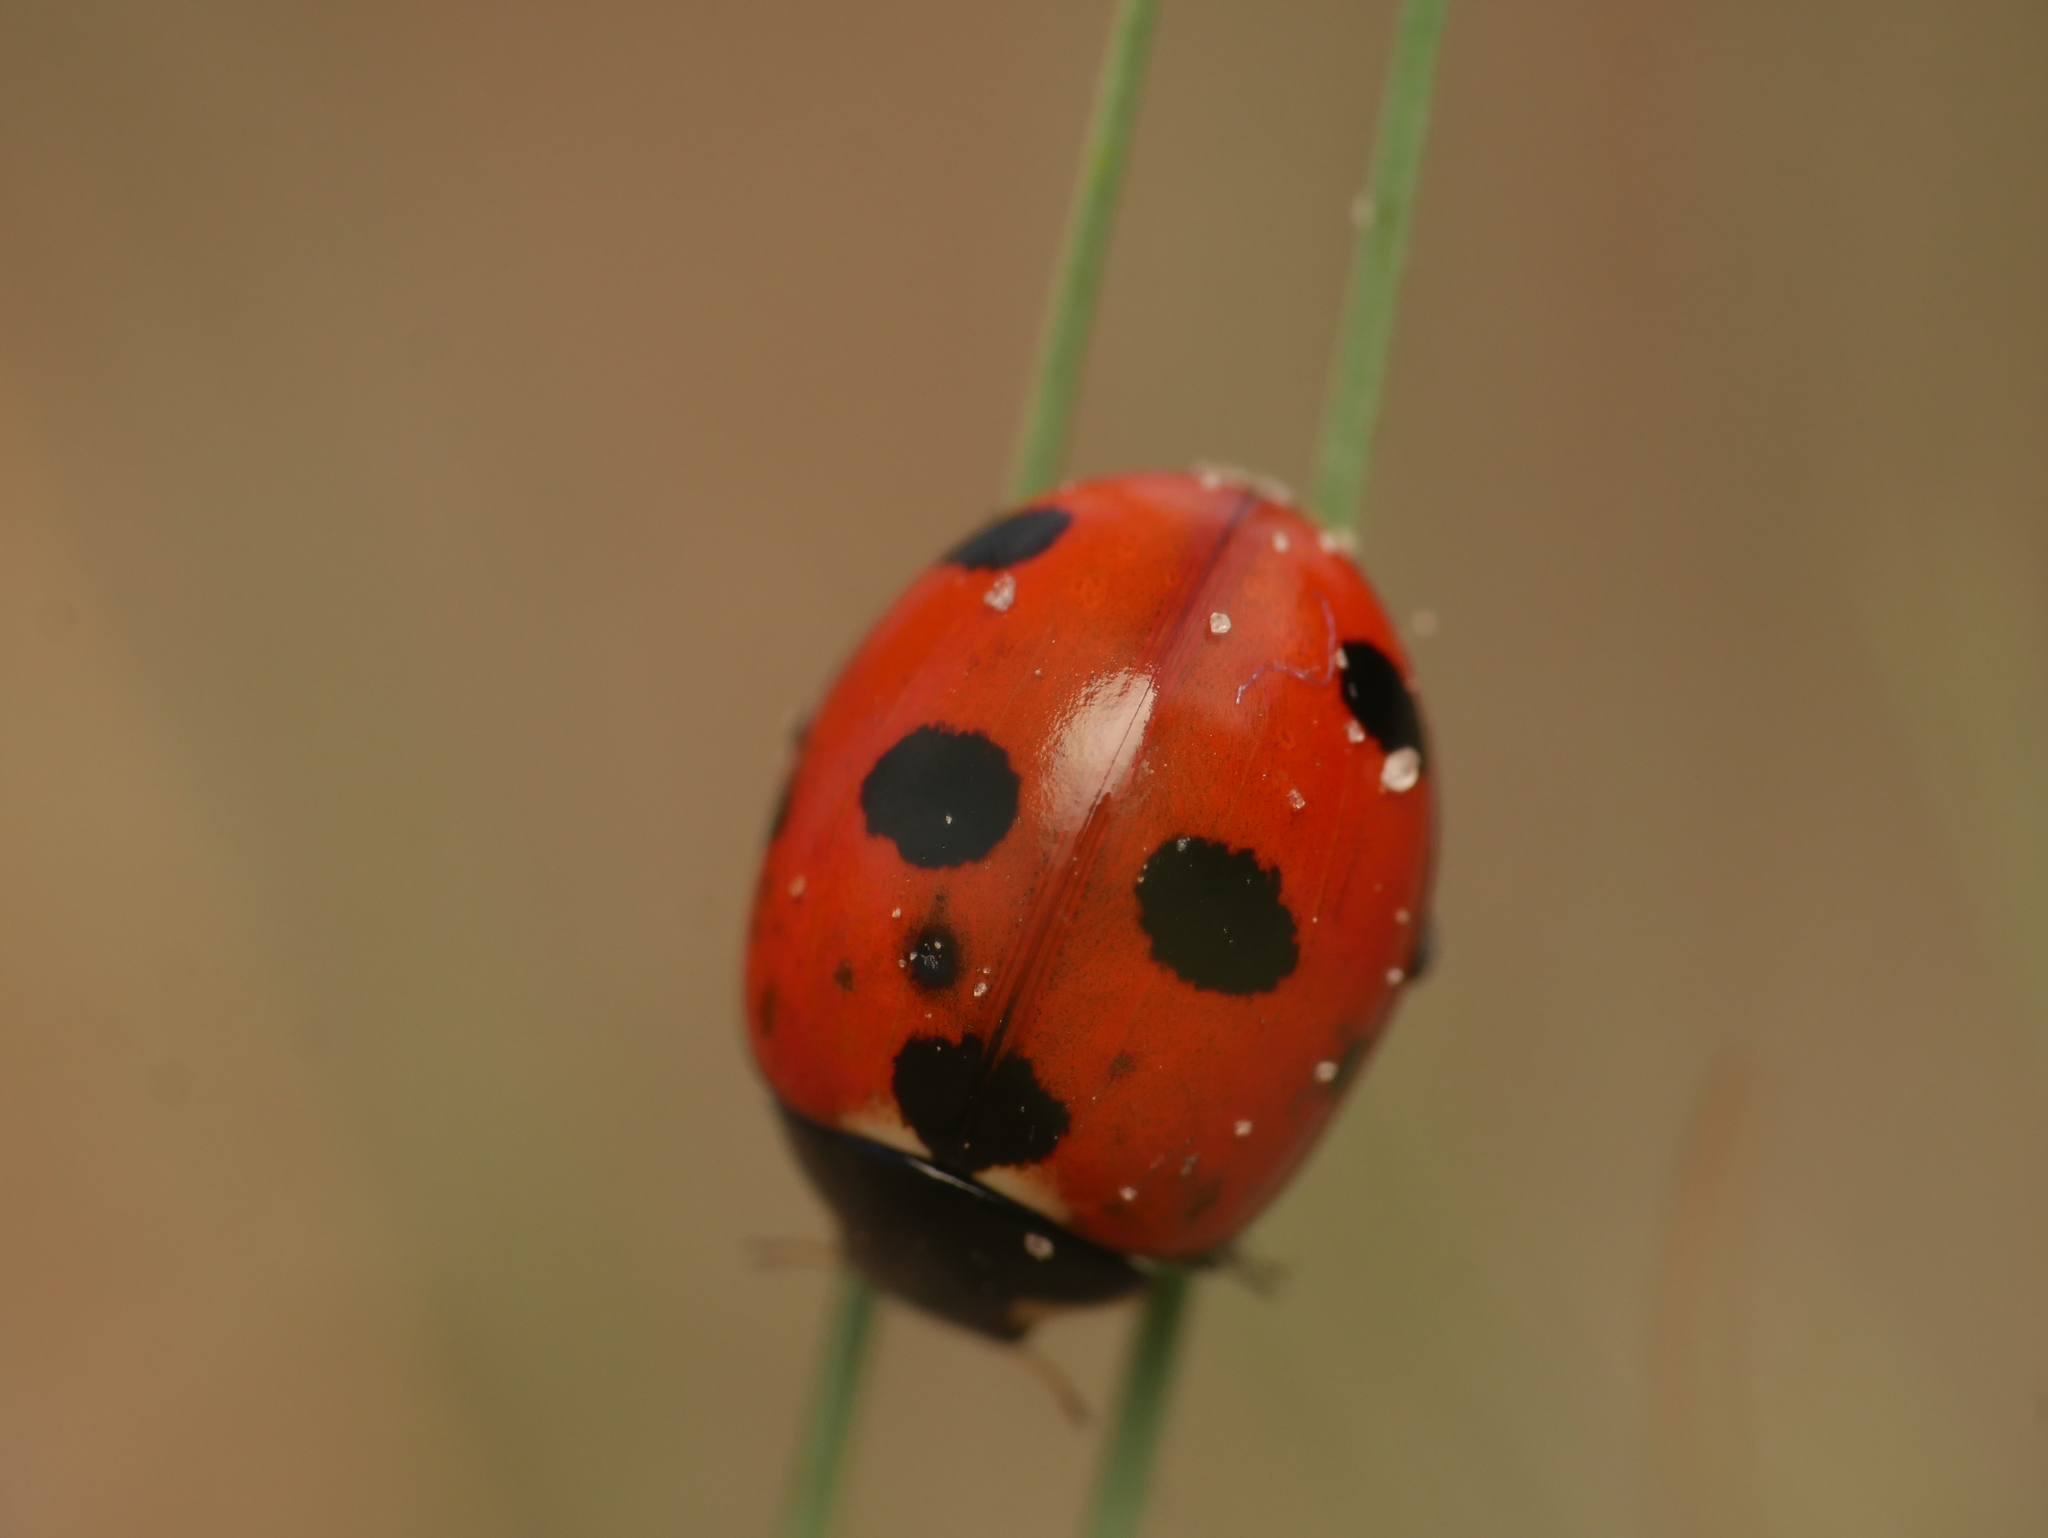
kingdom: Animalia
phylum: Arthropoda
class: Insecta
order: Coleoptera
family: Coccinellidae
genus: Coccinella
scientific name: Coccinella magnifica
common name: Scarce 7-spot ladybird
